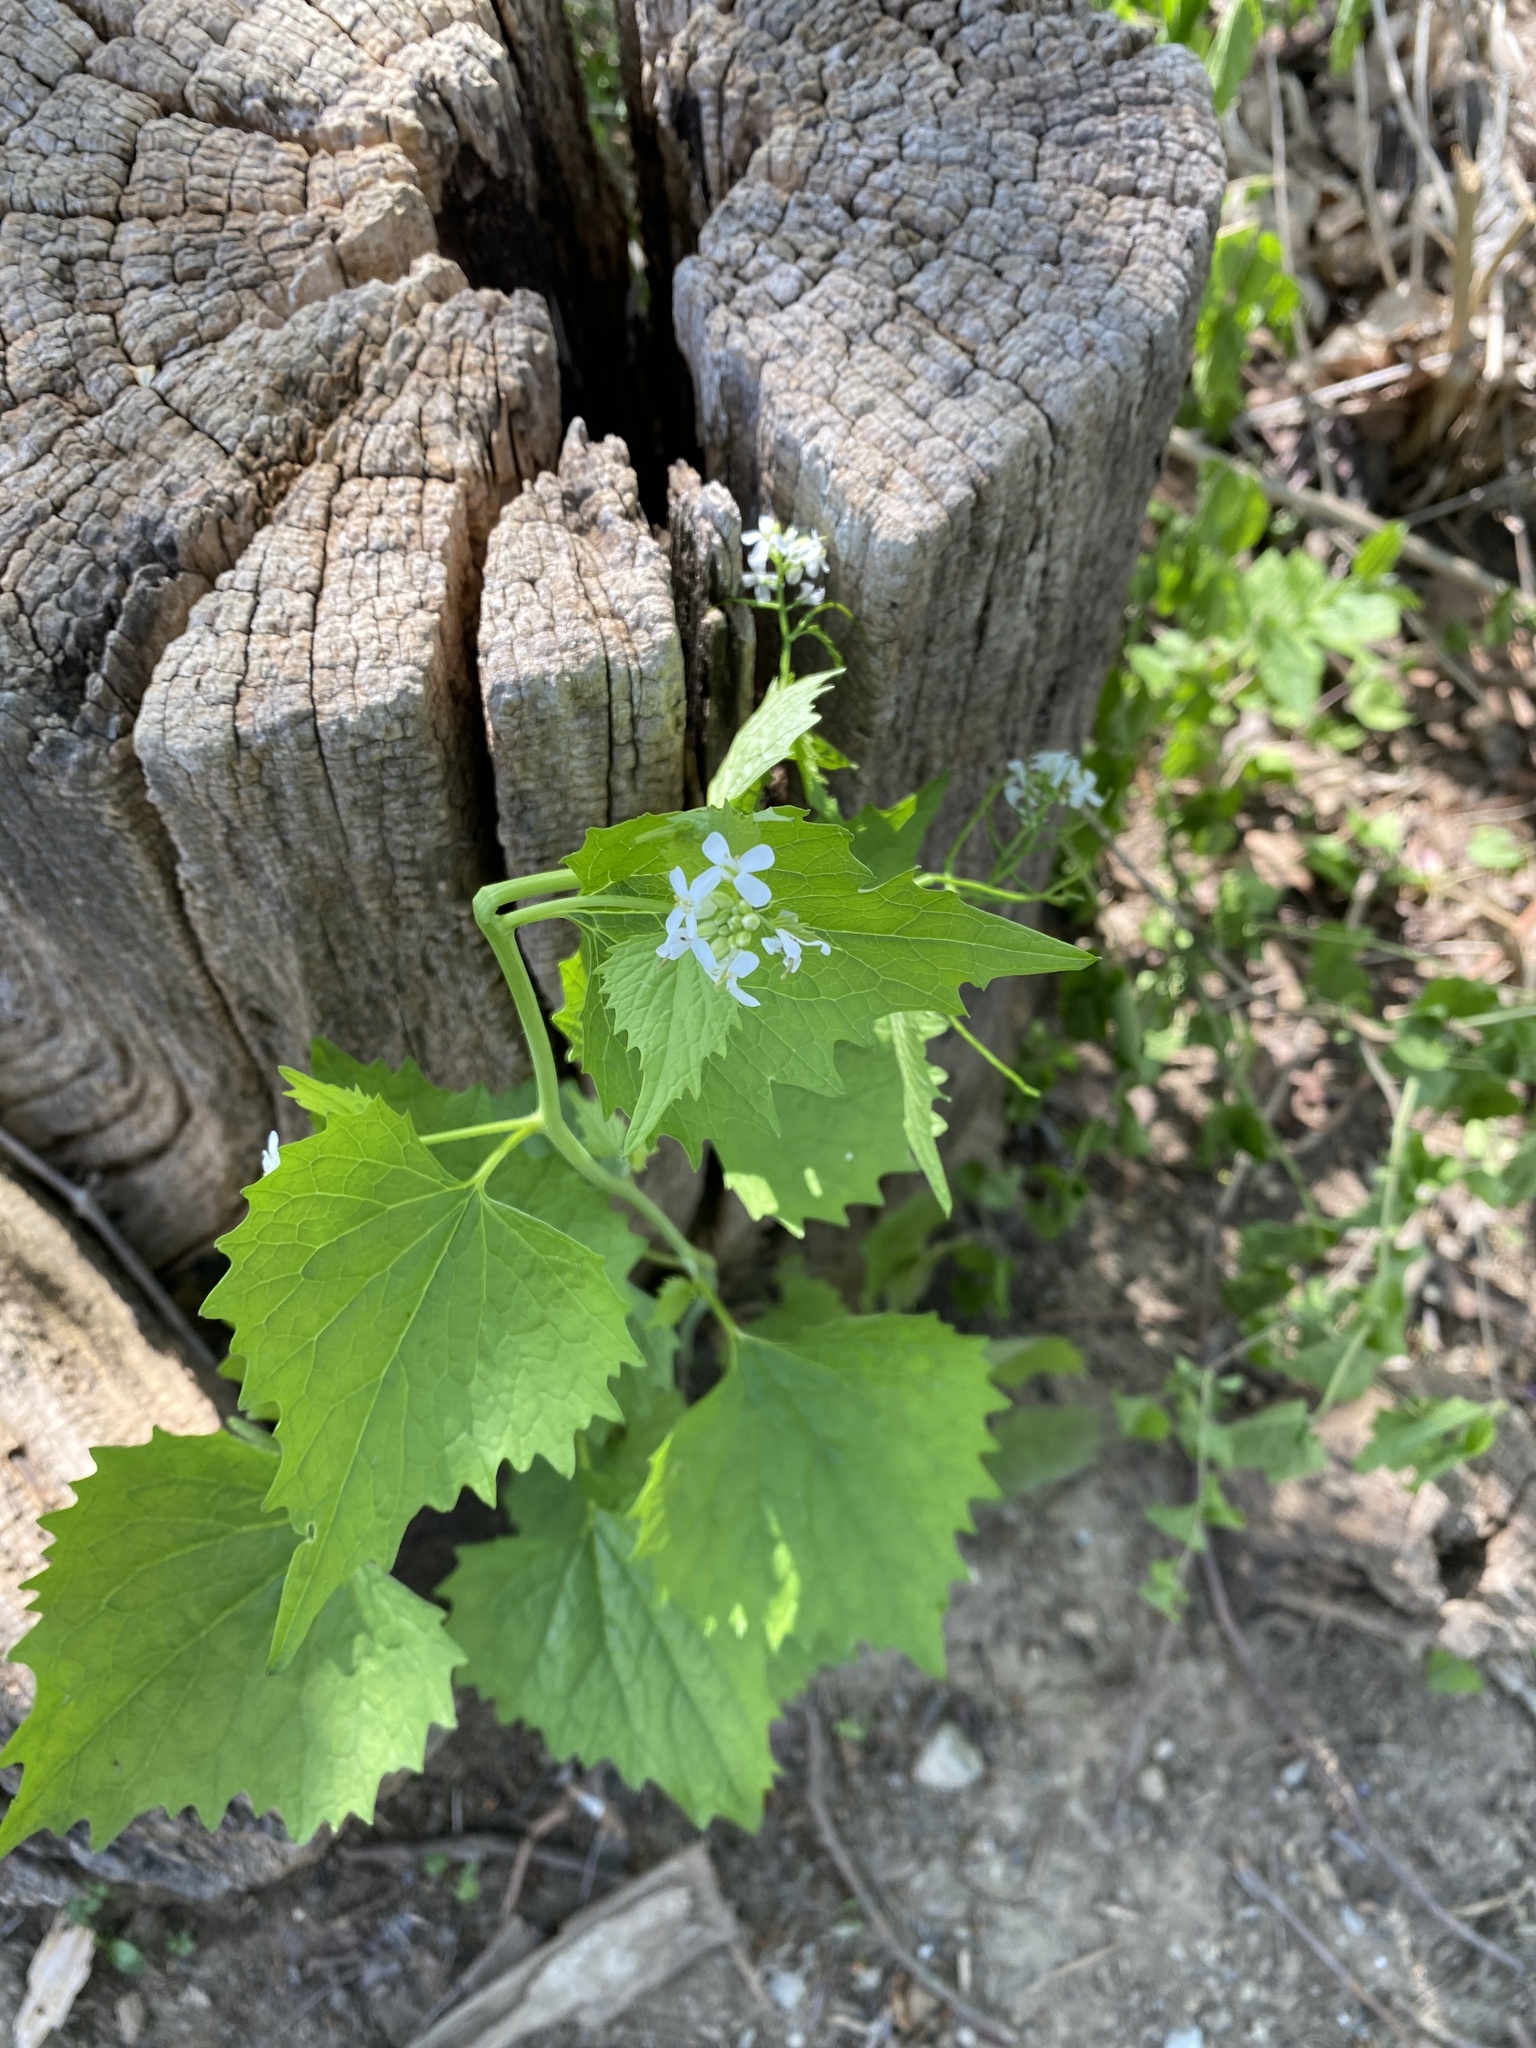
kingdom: Plantae
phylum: Tracheophyta
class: Magnoliopsida
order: Brassicales
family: Brassicaceae
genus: Alliaria
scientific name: Alliaria petiolata
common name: Garlic mustard
